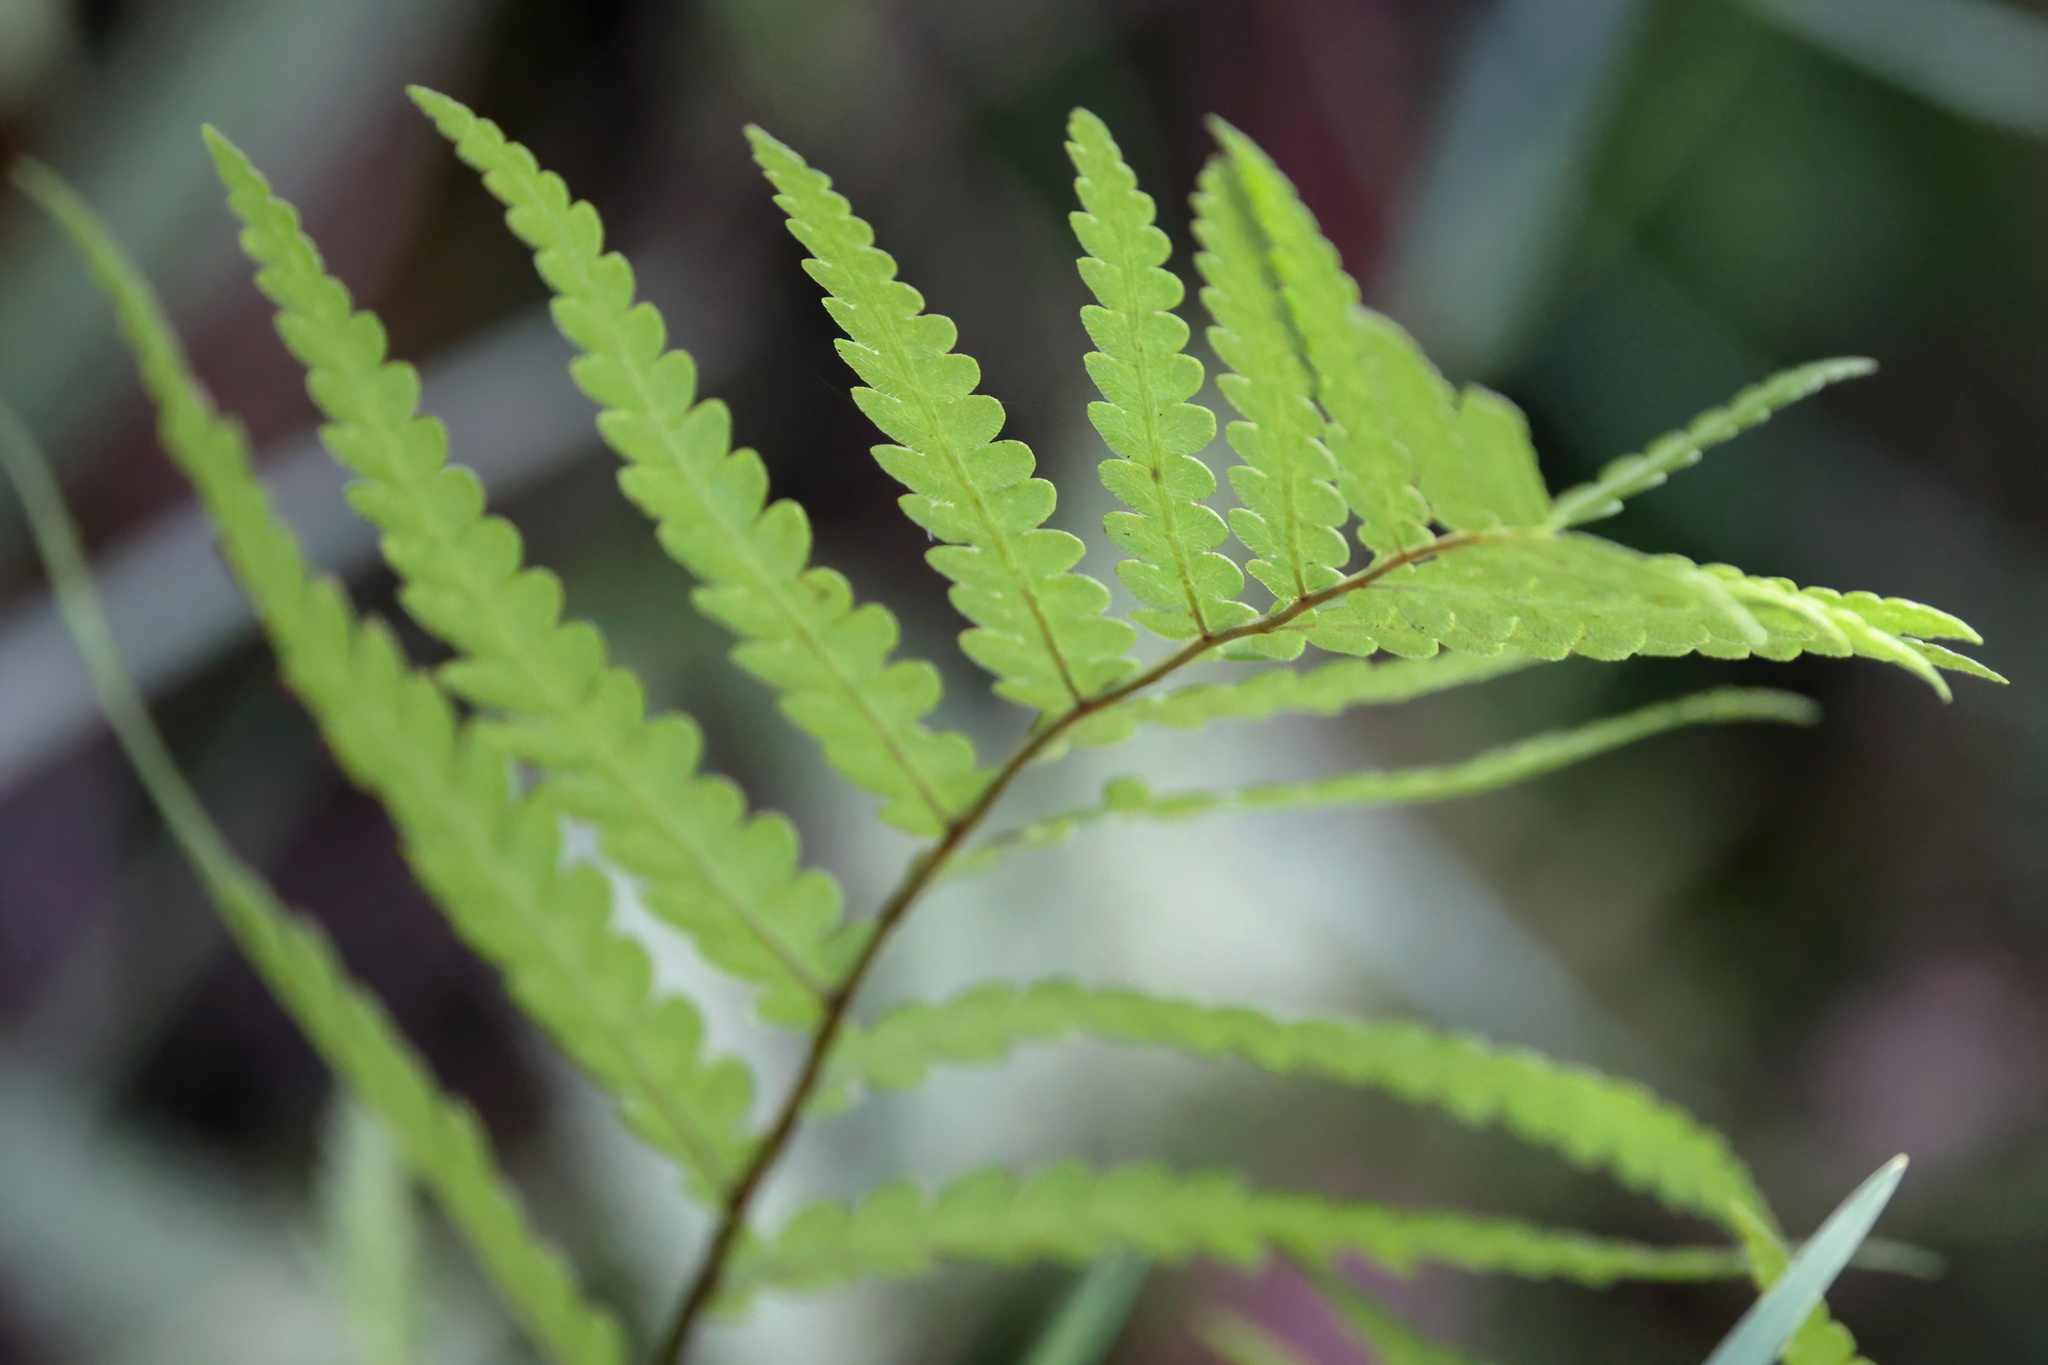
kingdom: Plantae
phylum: Tracheophyta
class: Polypodiopsida
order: Polypodiales
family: Blechnaceae
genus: Anchistea
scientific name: Anchistea virginica
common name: Virginia chain fern
